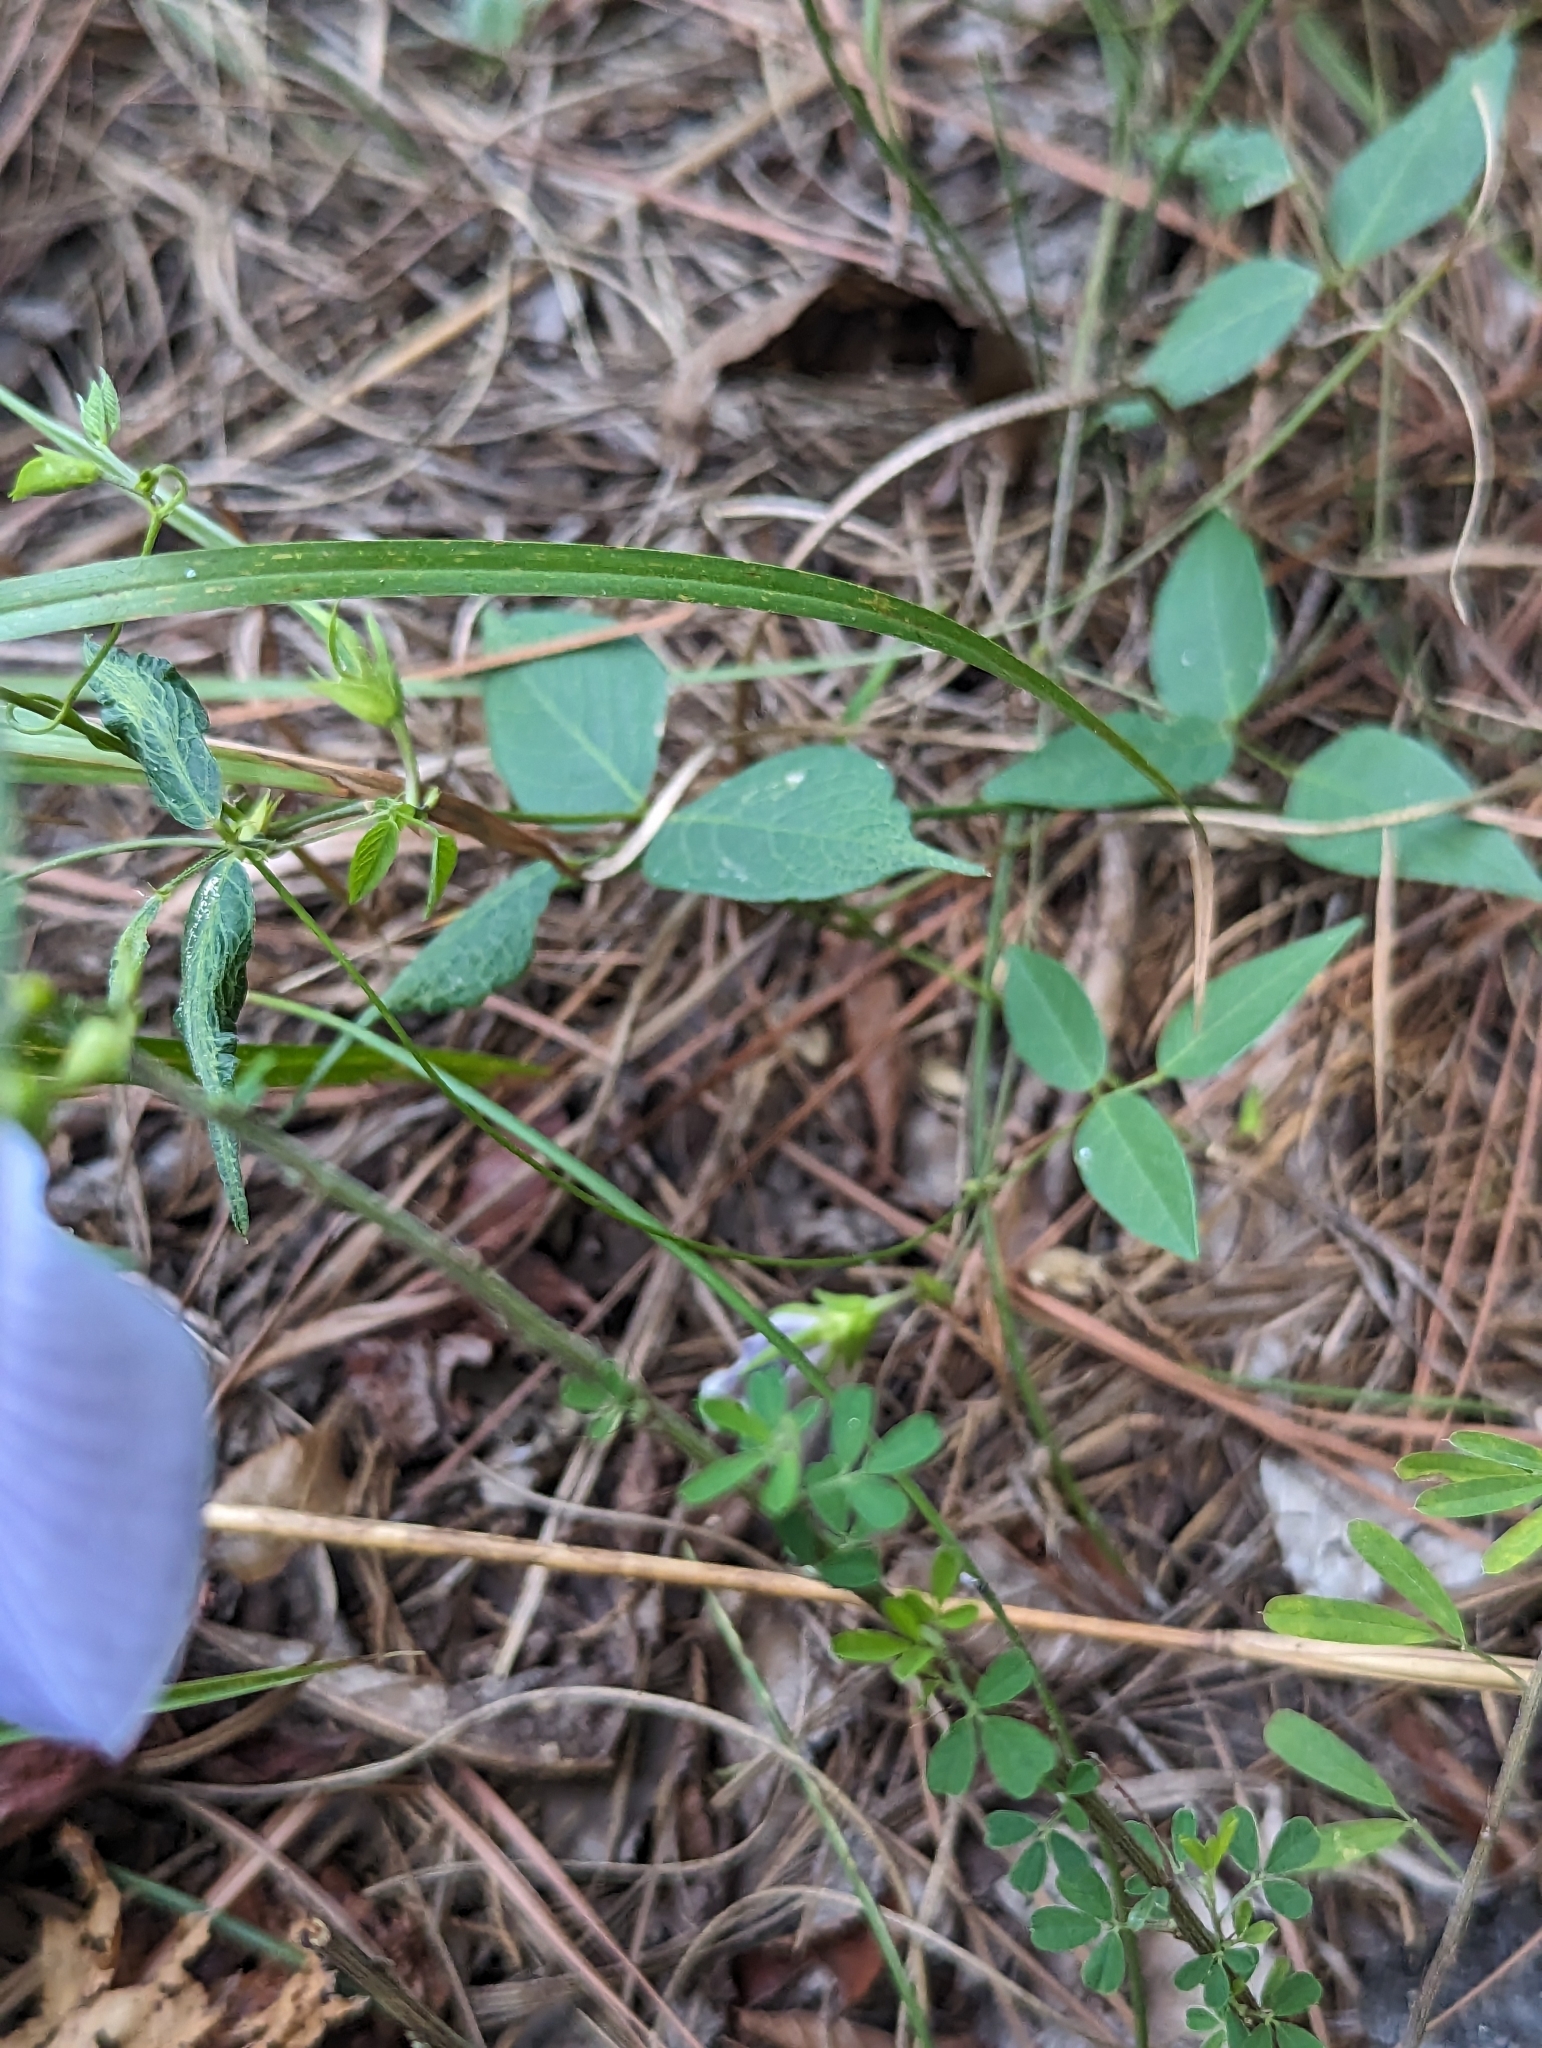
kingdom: Plantae
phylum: Tracheophyta
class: Magnoliopsida
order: Fabales
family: Fabaceae
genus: Centrosema
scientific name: Centrosema virginianum
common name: Butterfly-pea
